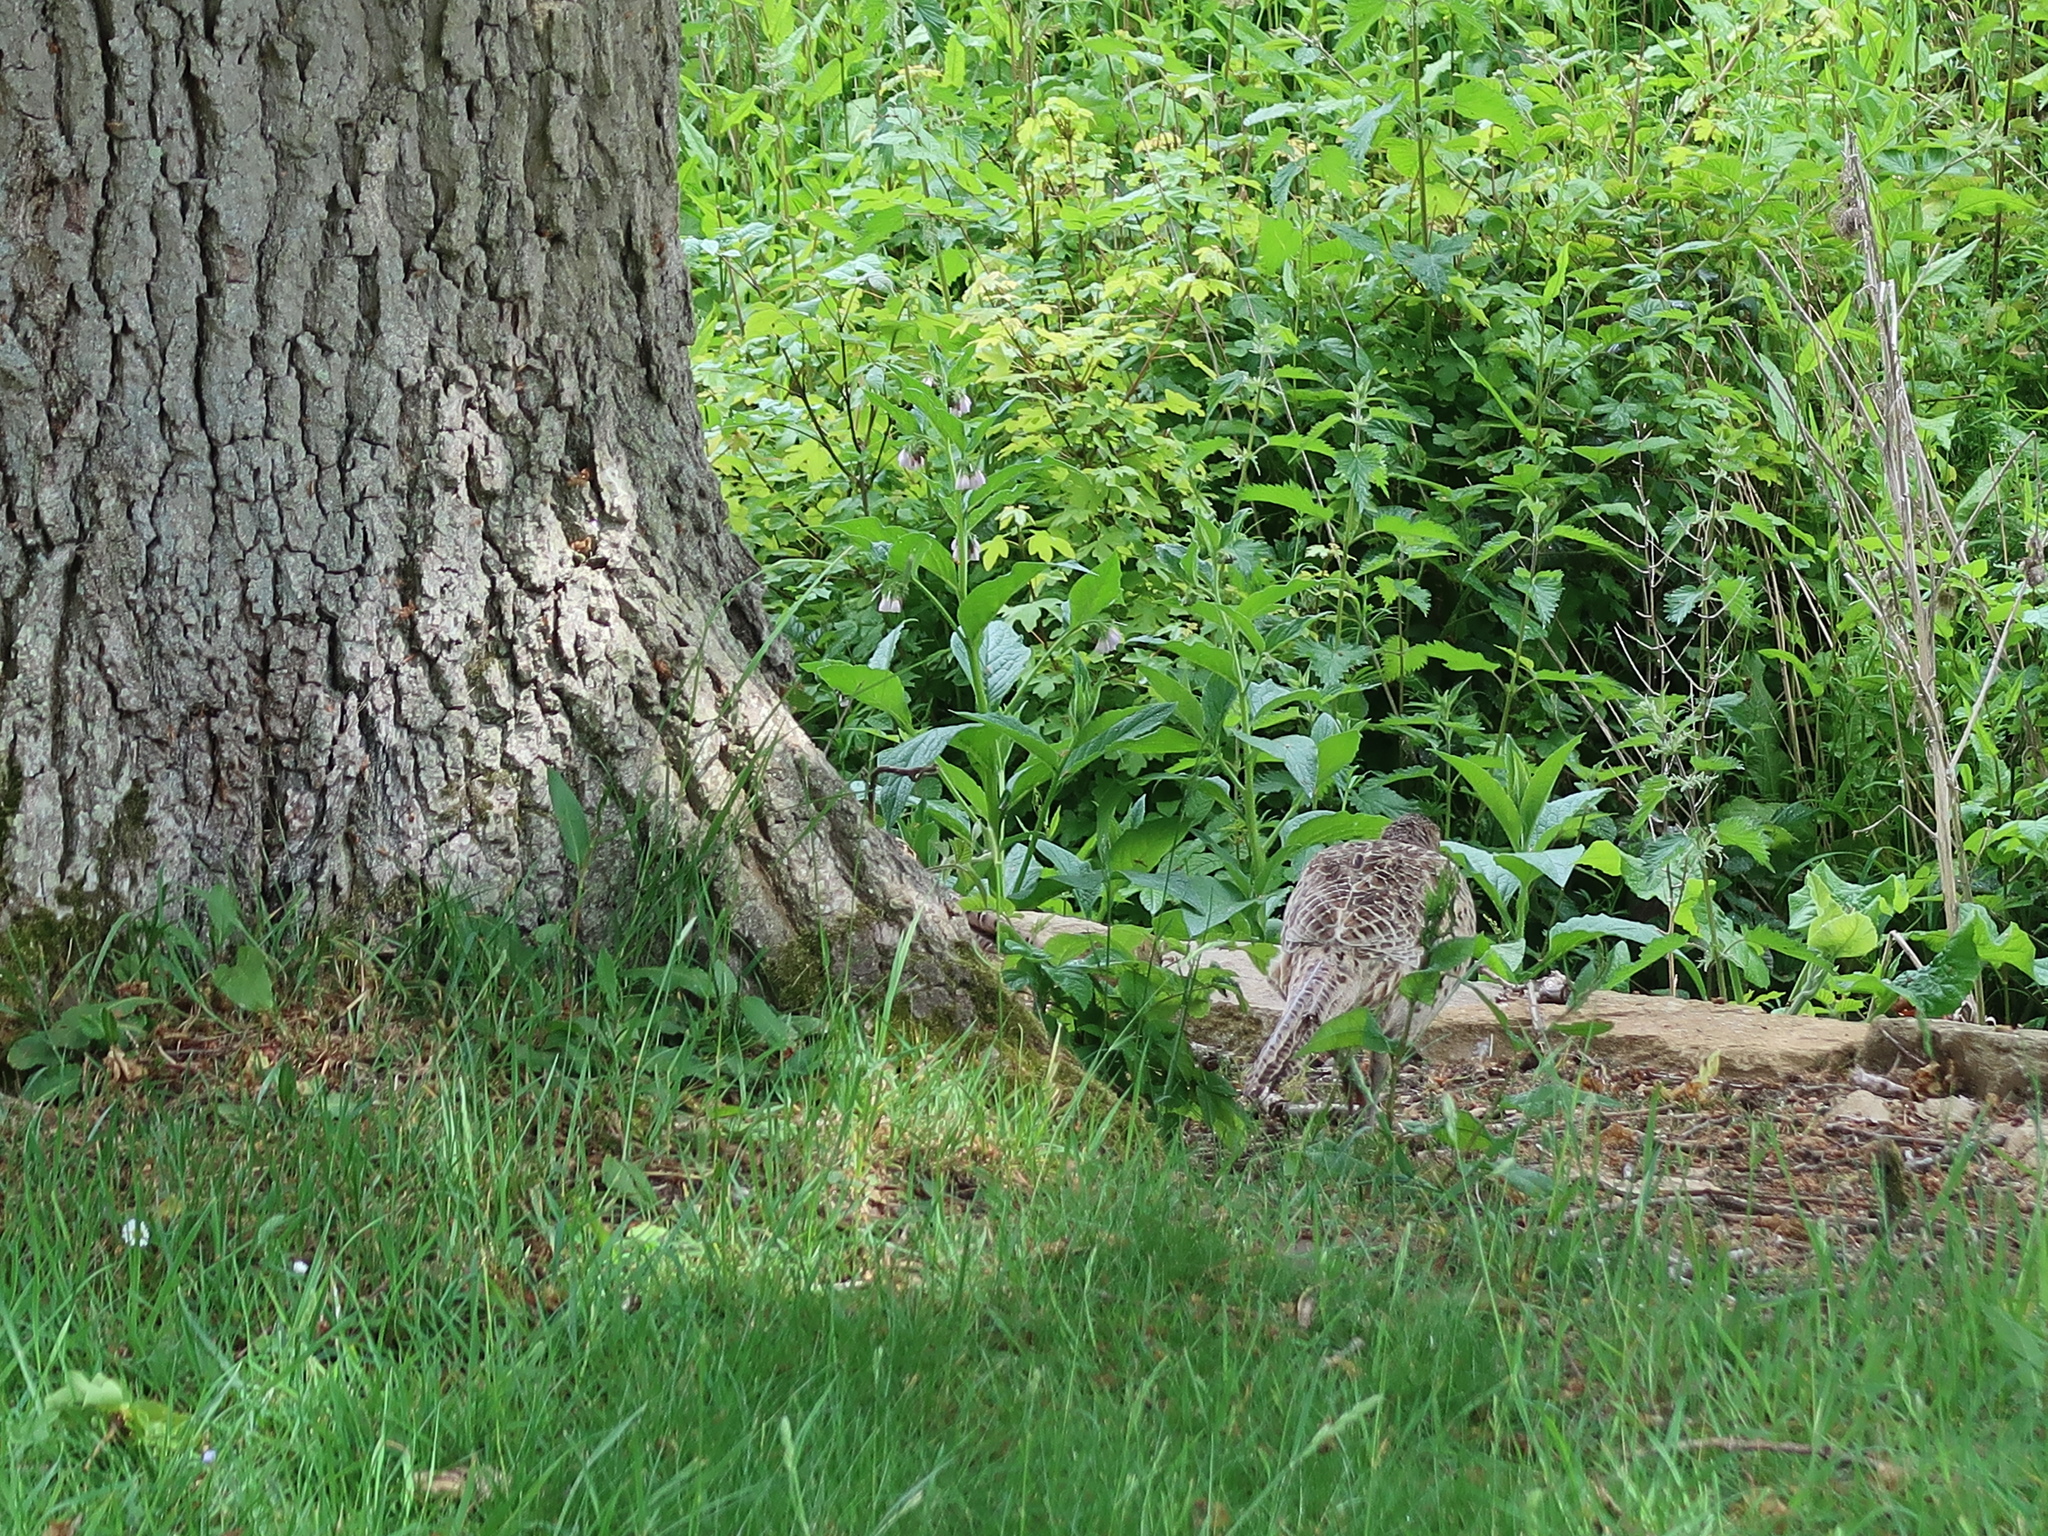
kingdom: Animalia
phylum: Chordata
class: Aves
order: Galliformes
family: Phasianidae
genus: Phasianus
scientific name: Phasianus colchicus
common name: Common pheasant
